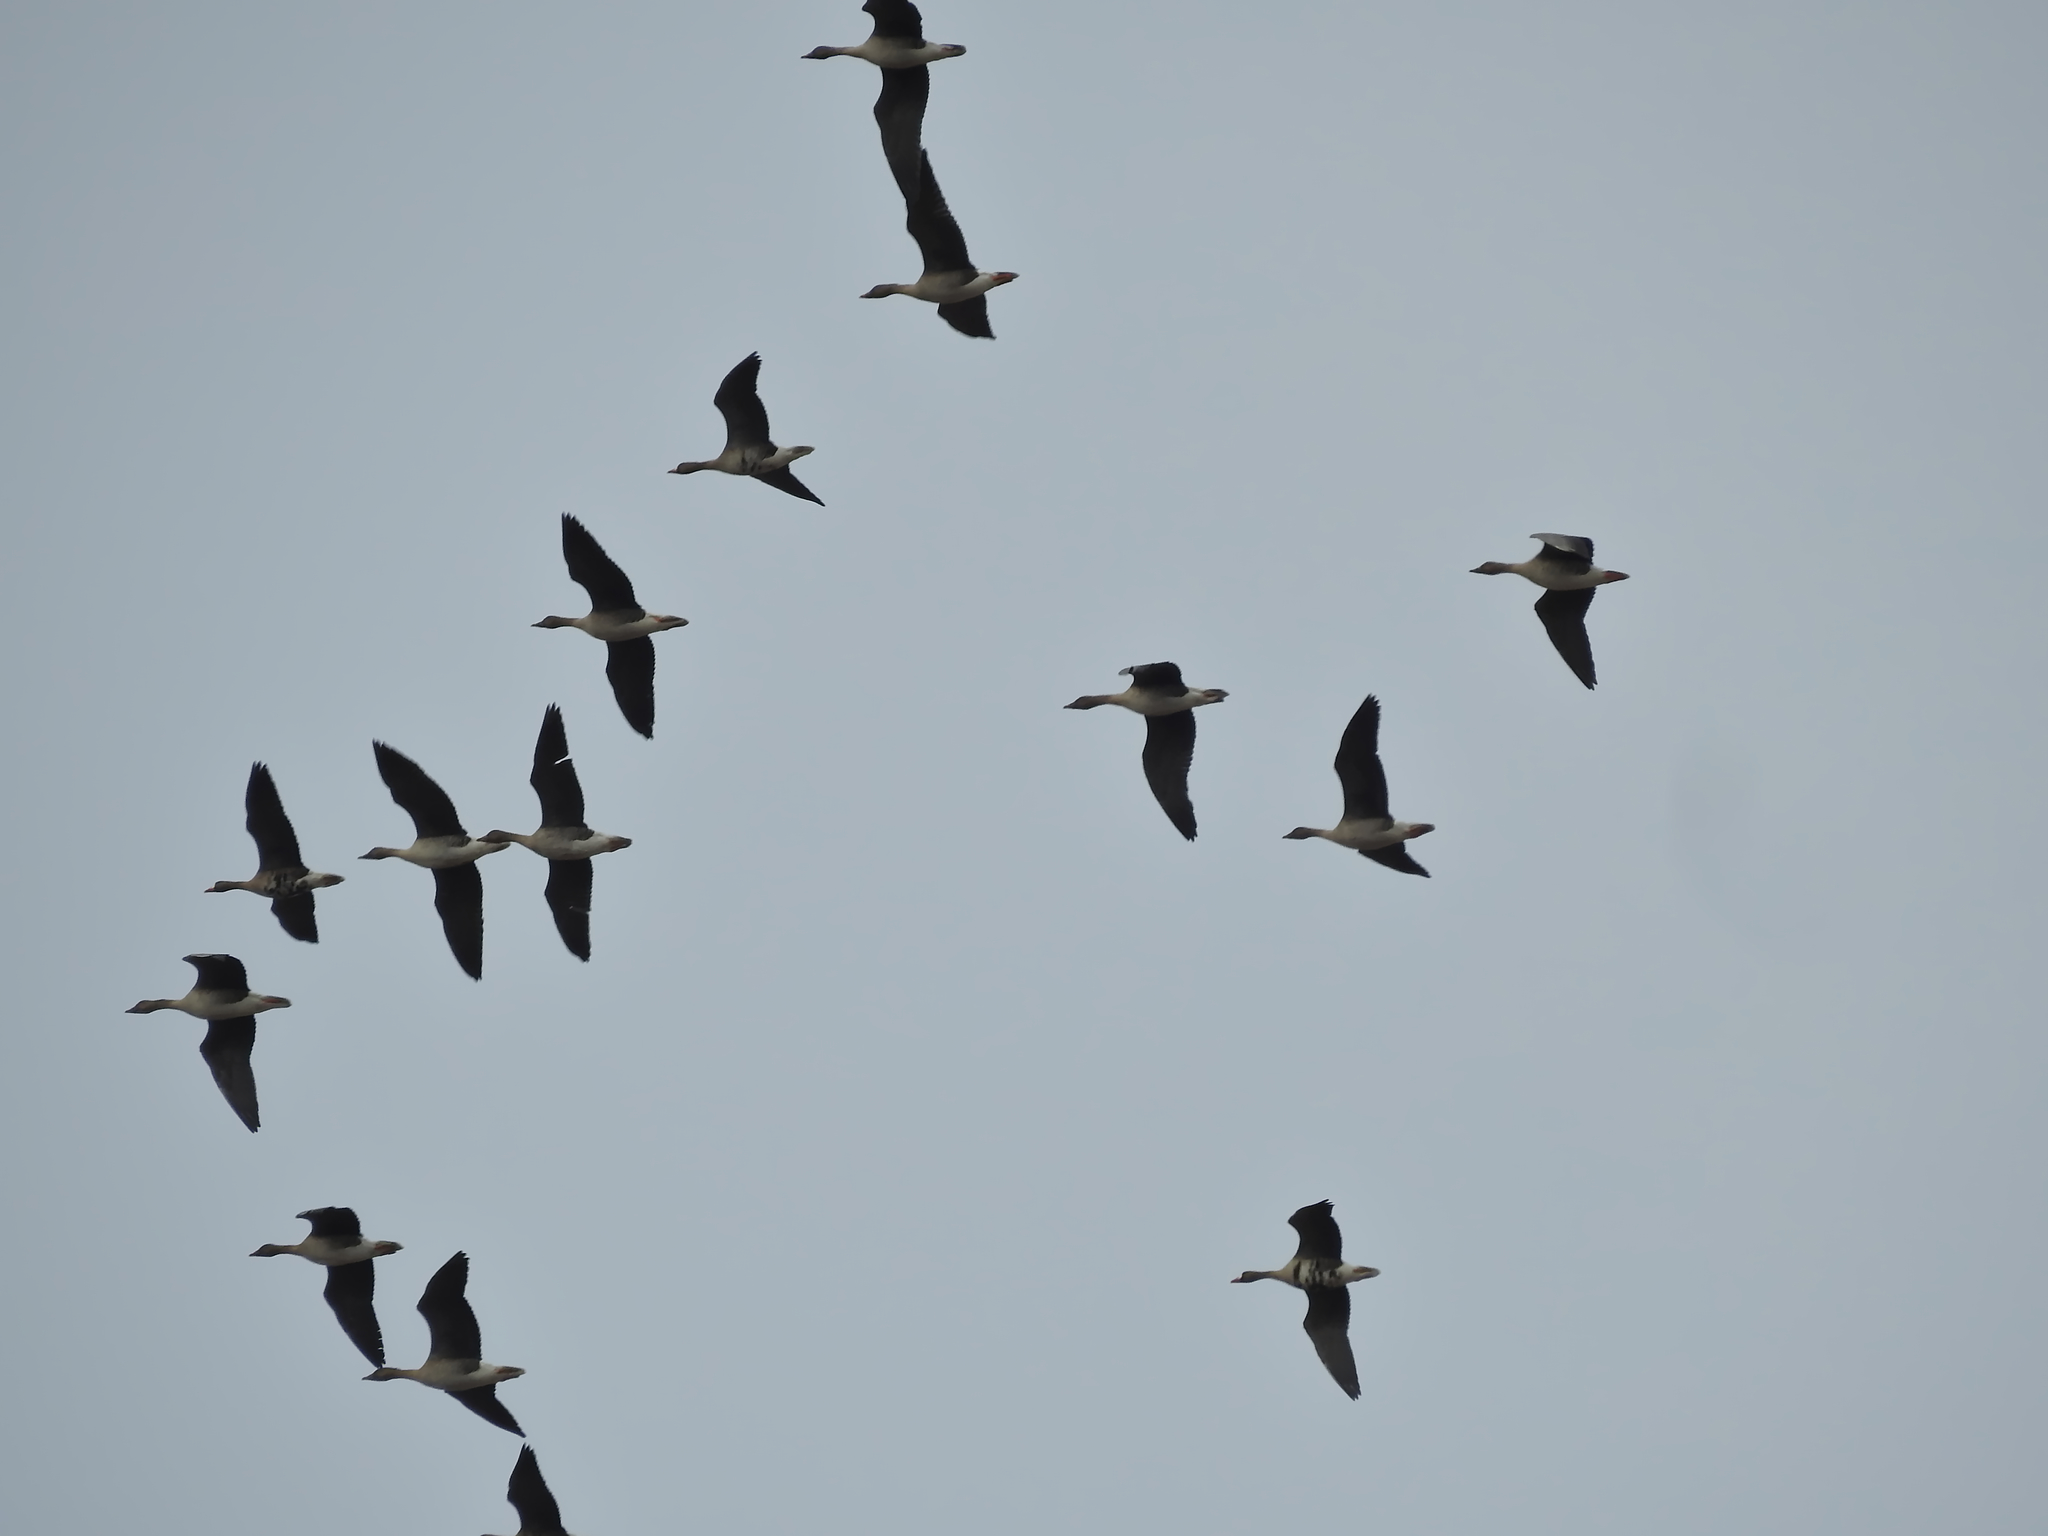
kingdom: Animalia
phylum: Chordata
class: Aves
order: Anseriformes
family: Anatidae
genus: Anser
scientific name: Anser albifrons
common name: Greater white-fronted goose
